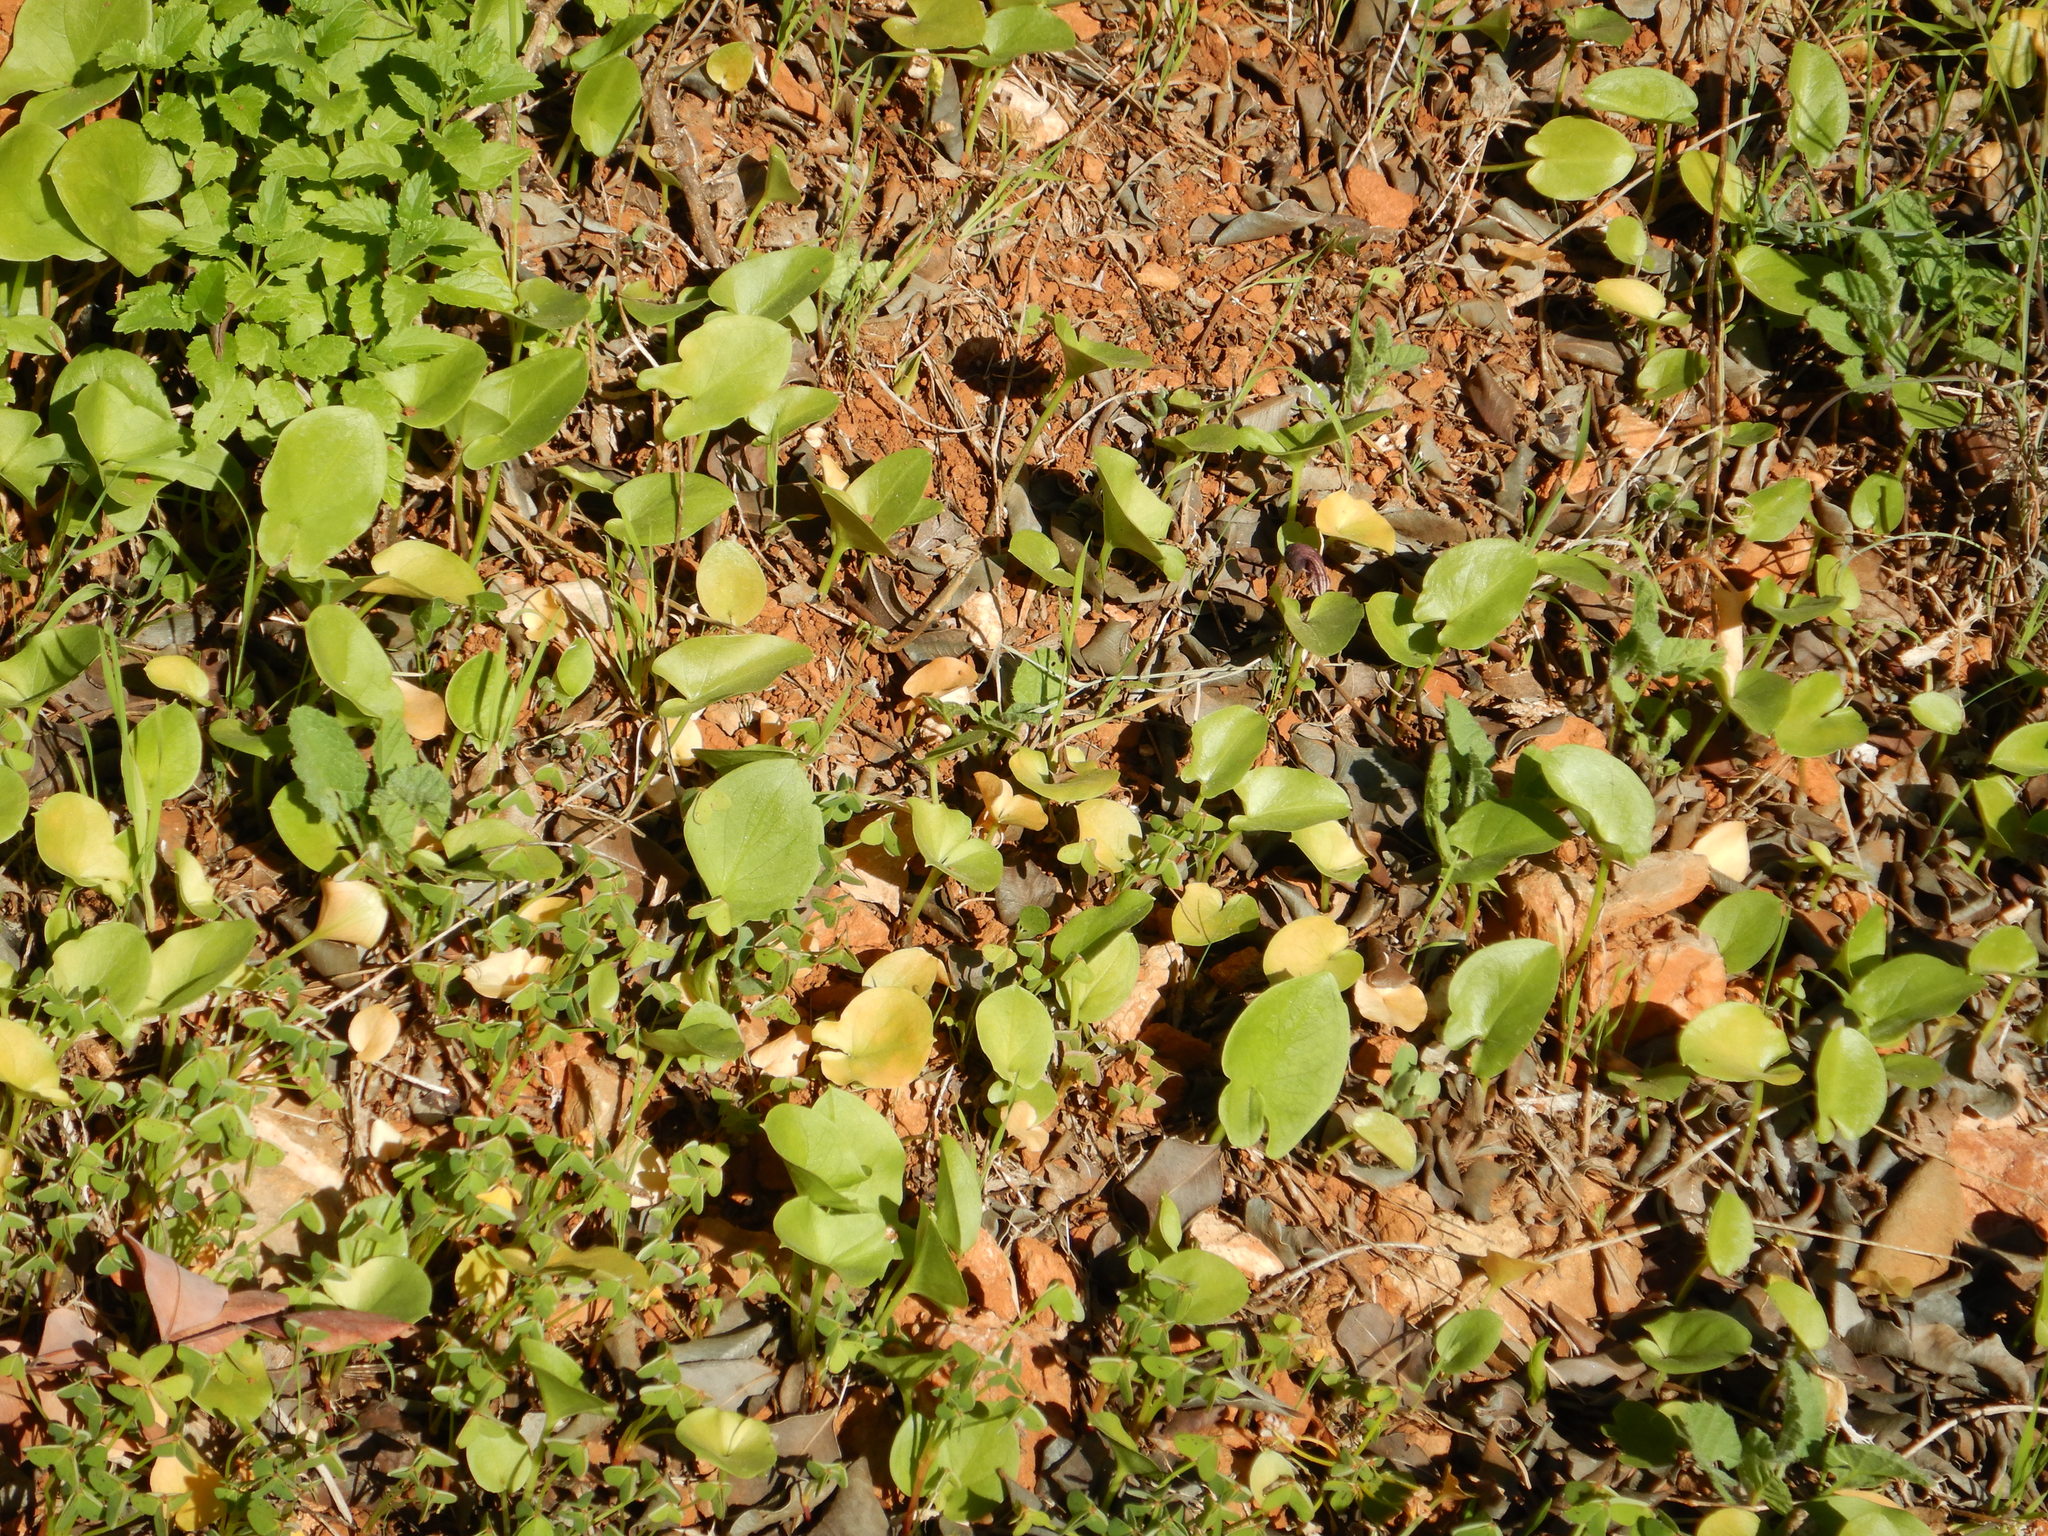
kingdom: Plantae
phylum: Tracheophyta
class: Liliopsida
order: Alismatales
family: Araceae
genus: Arisarum
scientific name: Arisarum simorrhinum
